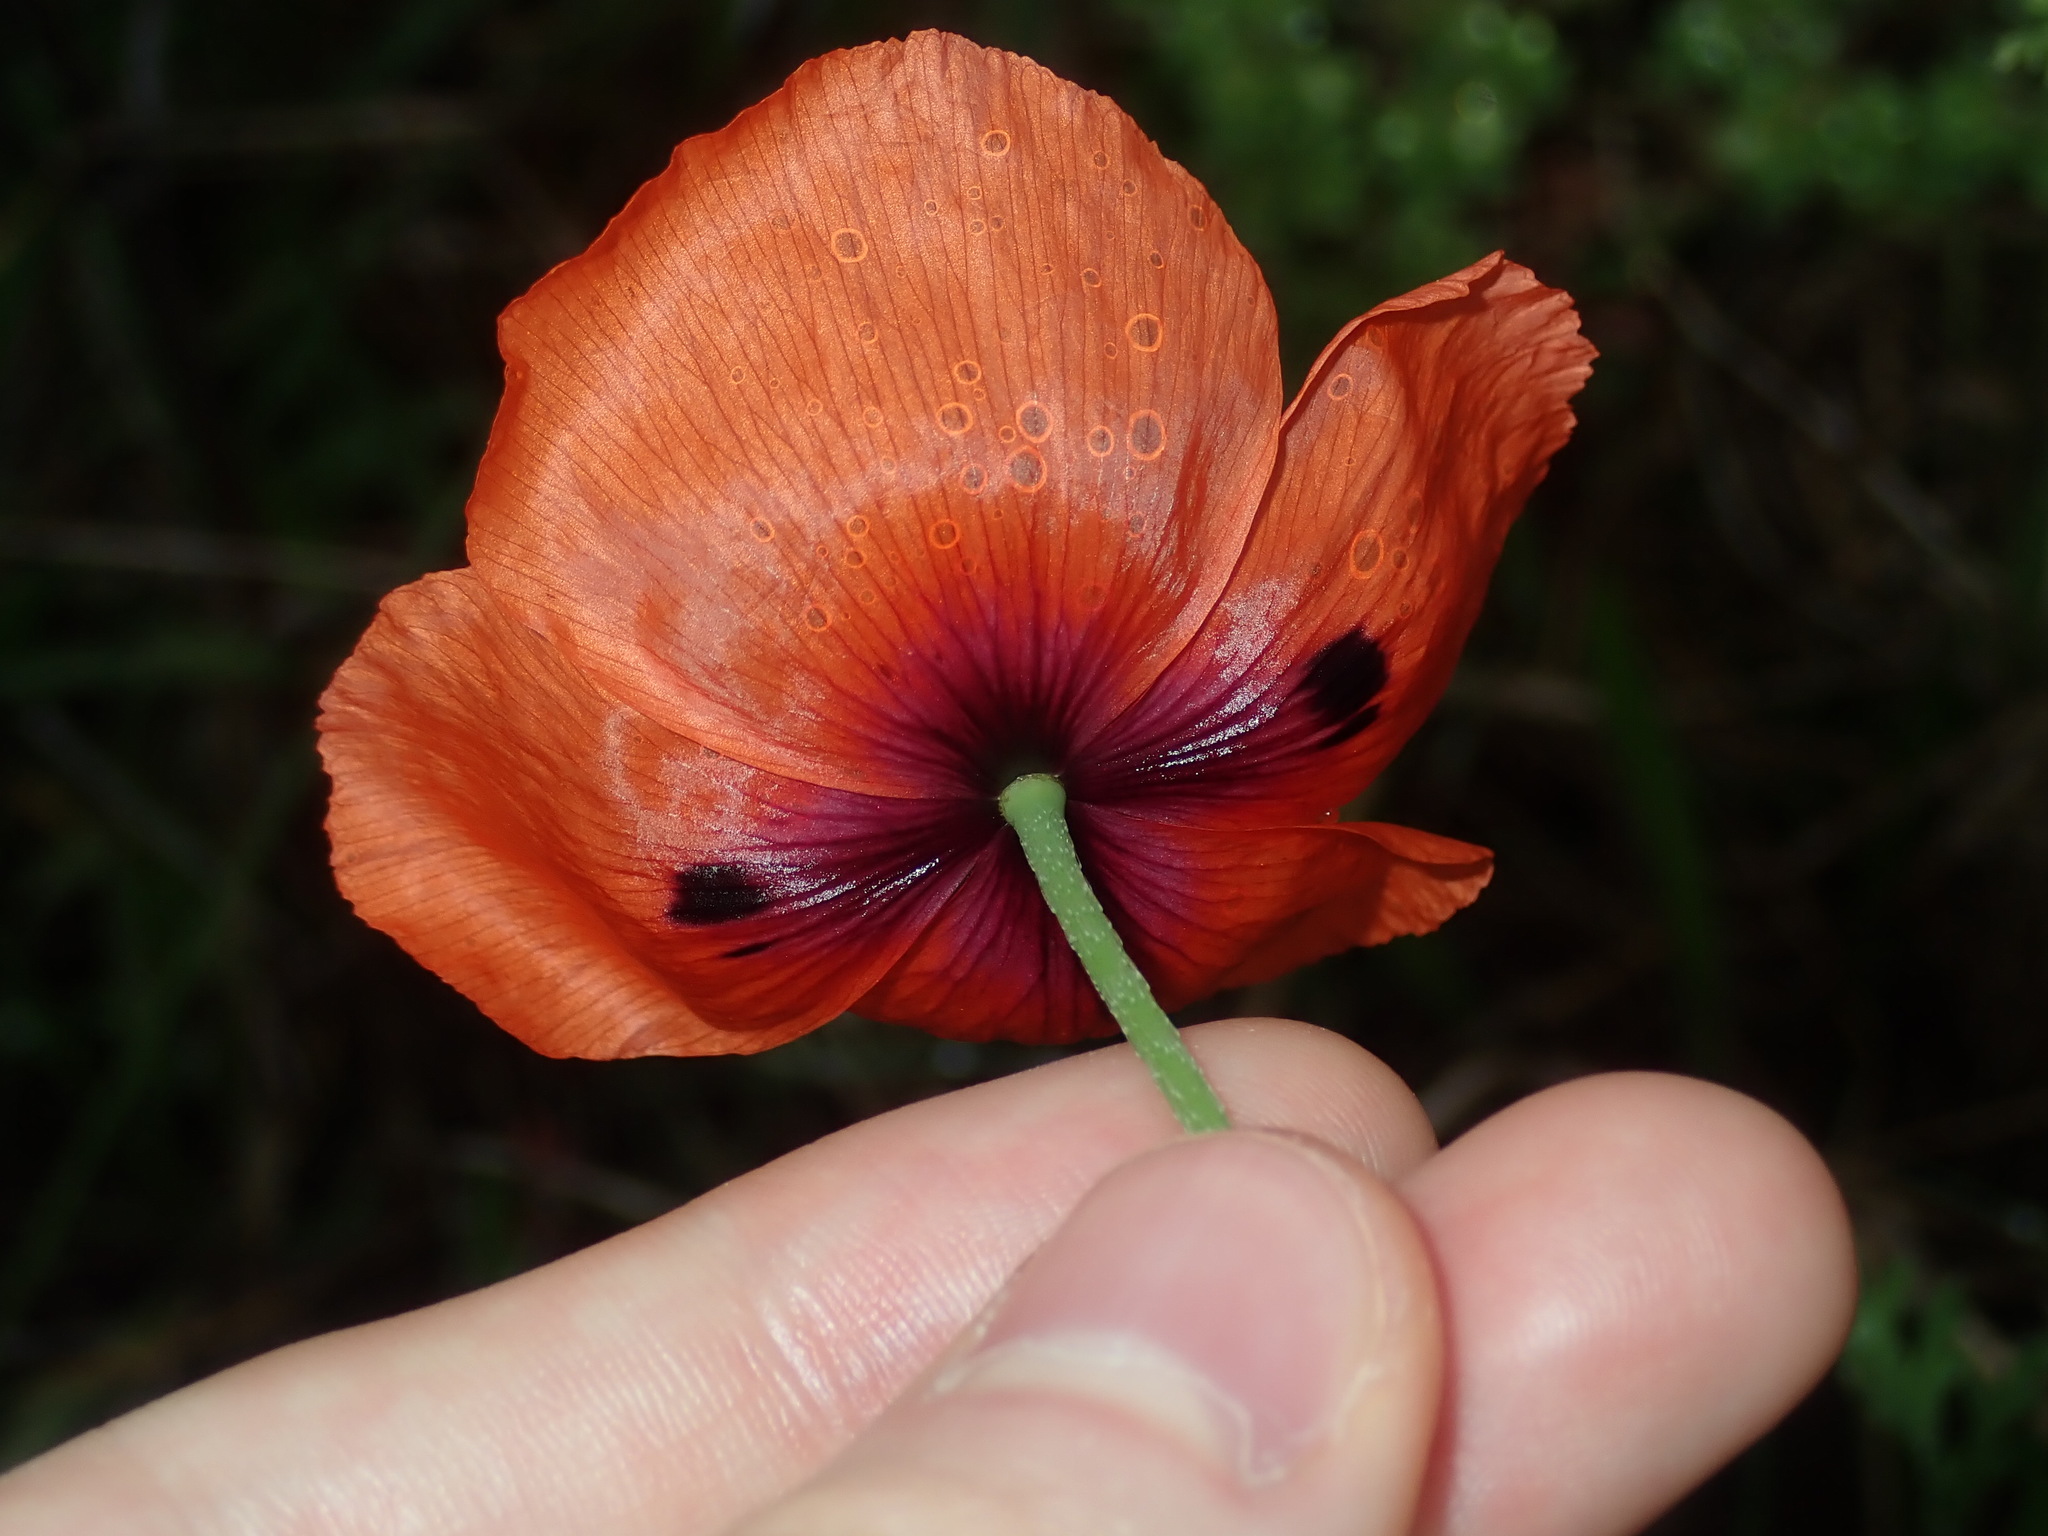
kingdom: Plantae
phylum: Tracheophyta
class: Magnoliopsida
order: Ranunculales
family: Papaveraceae
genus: Papaver
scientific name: Papaver dubium
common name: Long-headed poppy
